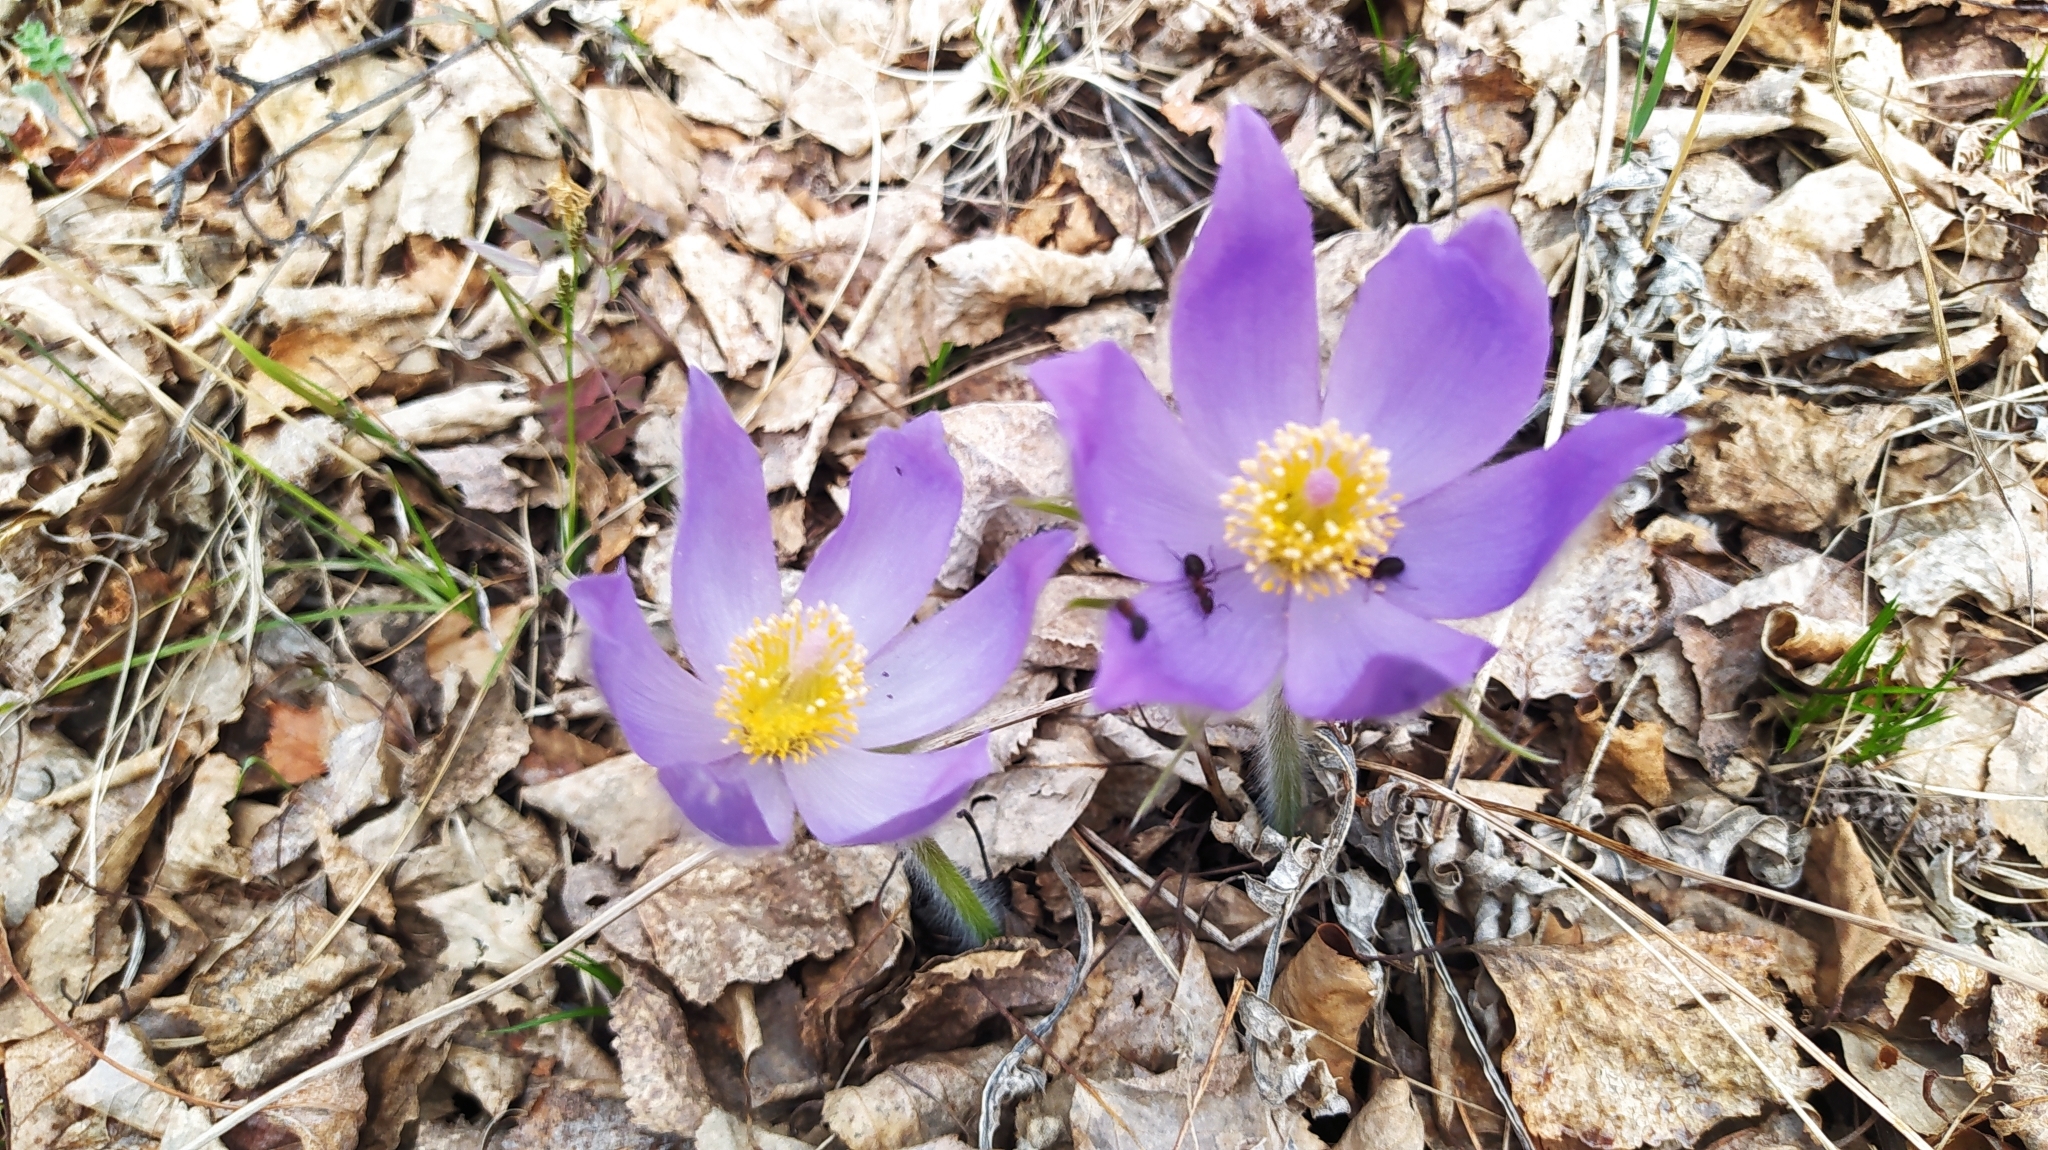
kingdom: Plantae
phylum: Tracheophyta
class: Magnoliopsida
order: Ranunculales
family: Ranunculaceae
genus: Pulsatilla
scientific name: Pulsatilla patens
